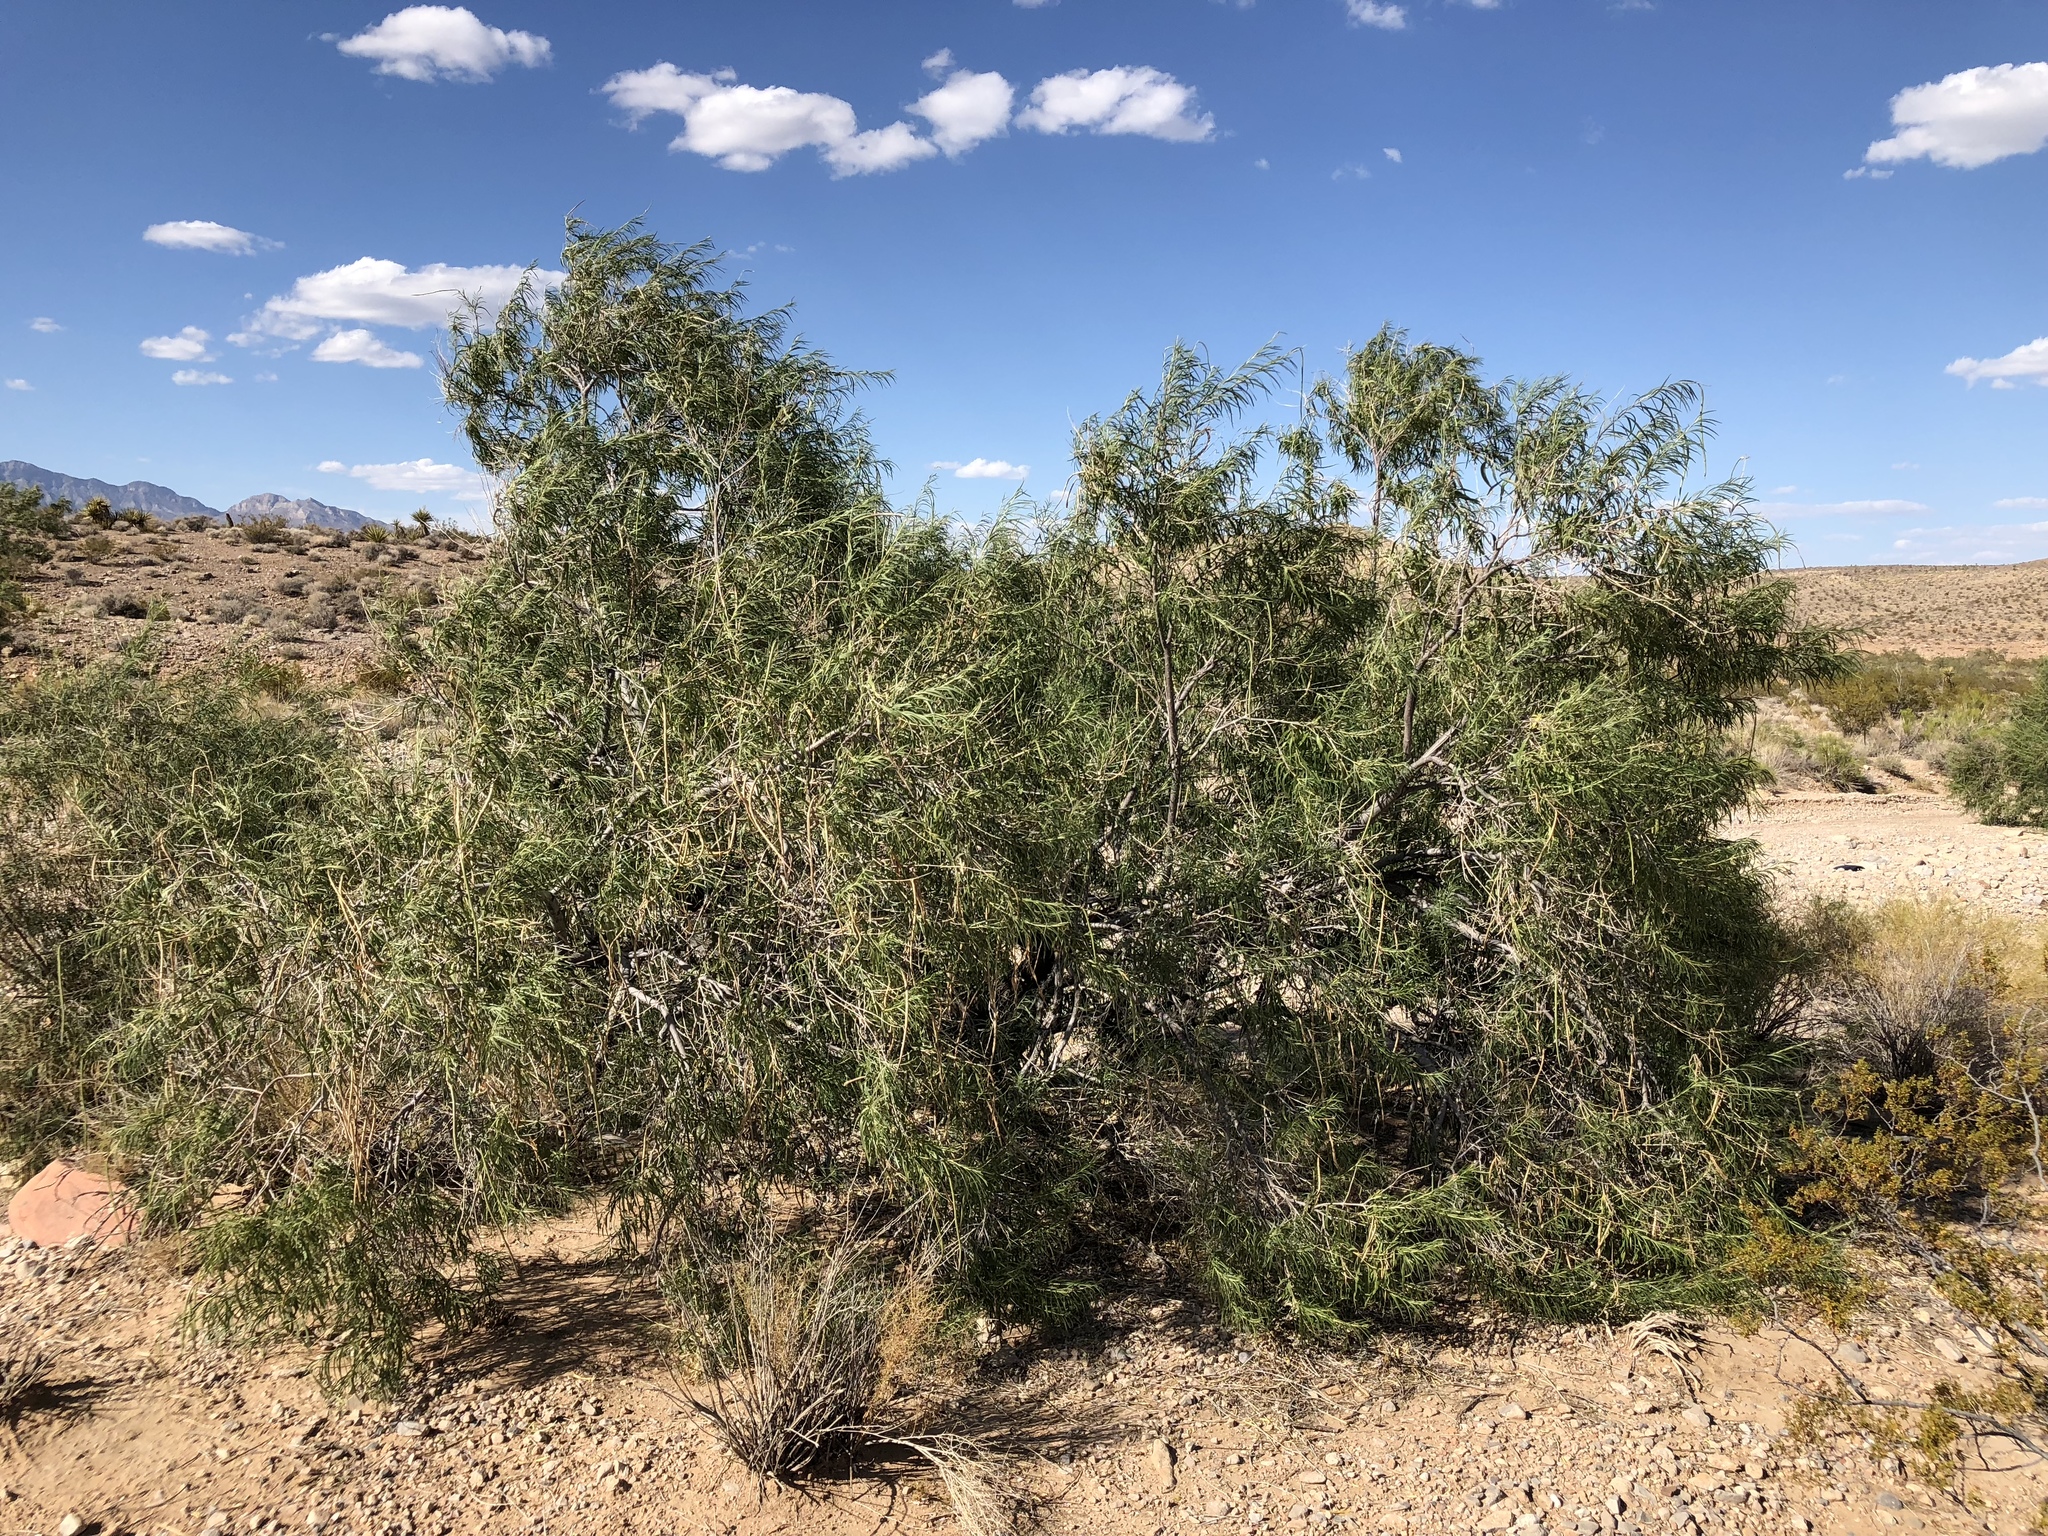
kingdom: Plantae
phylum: Tracheophyta
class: Magnoliopsida
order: Lamiales
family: Bignoniaceae
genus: Chilopsis
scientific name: Chilopsis linearis
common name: Desert-willow
